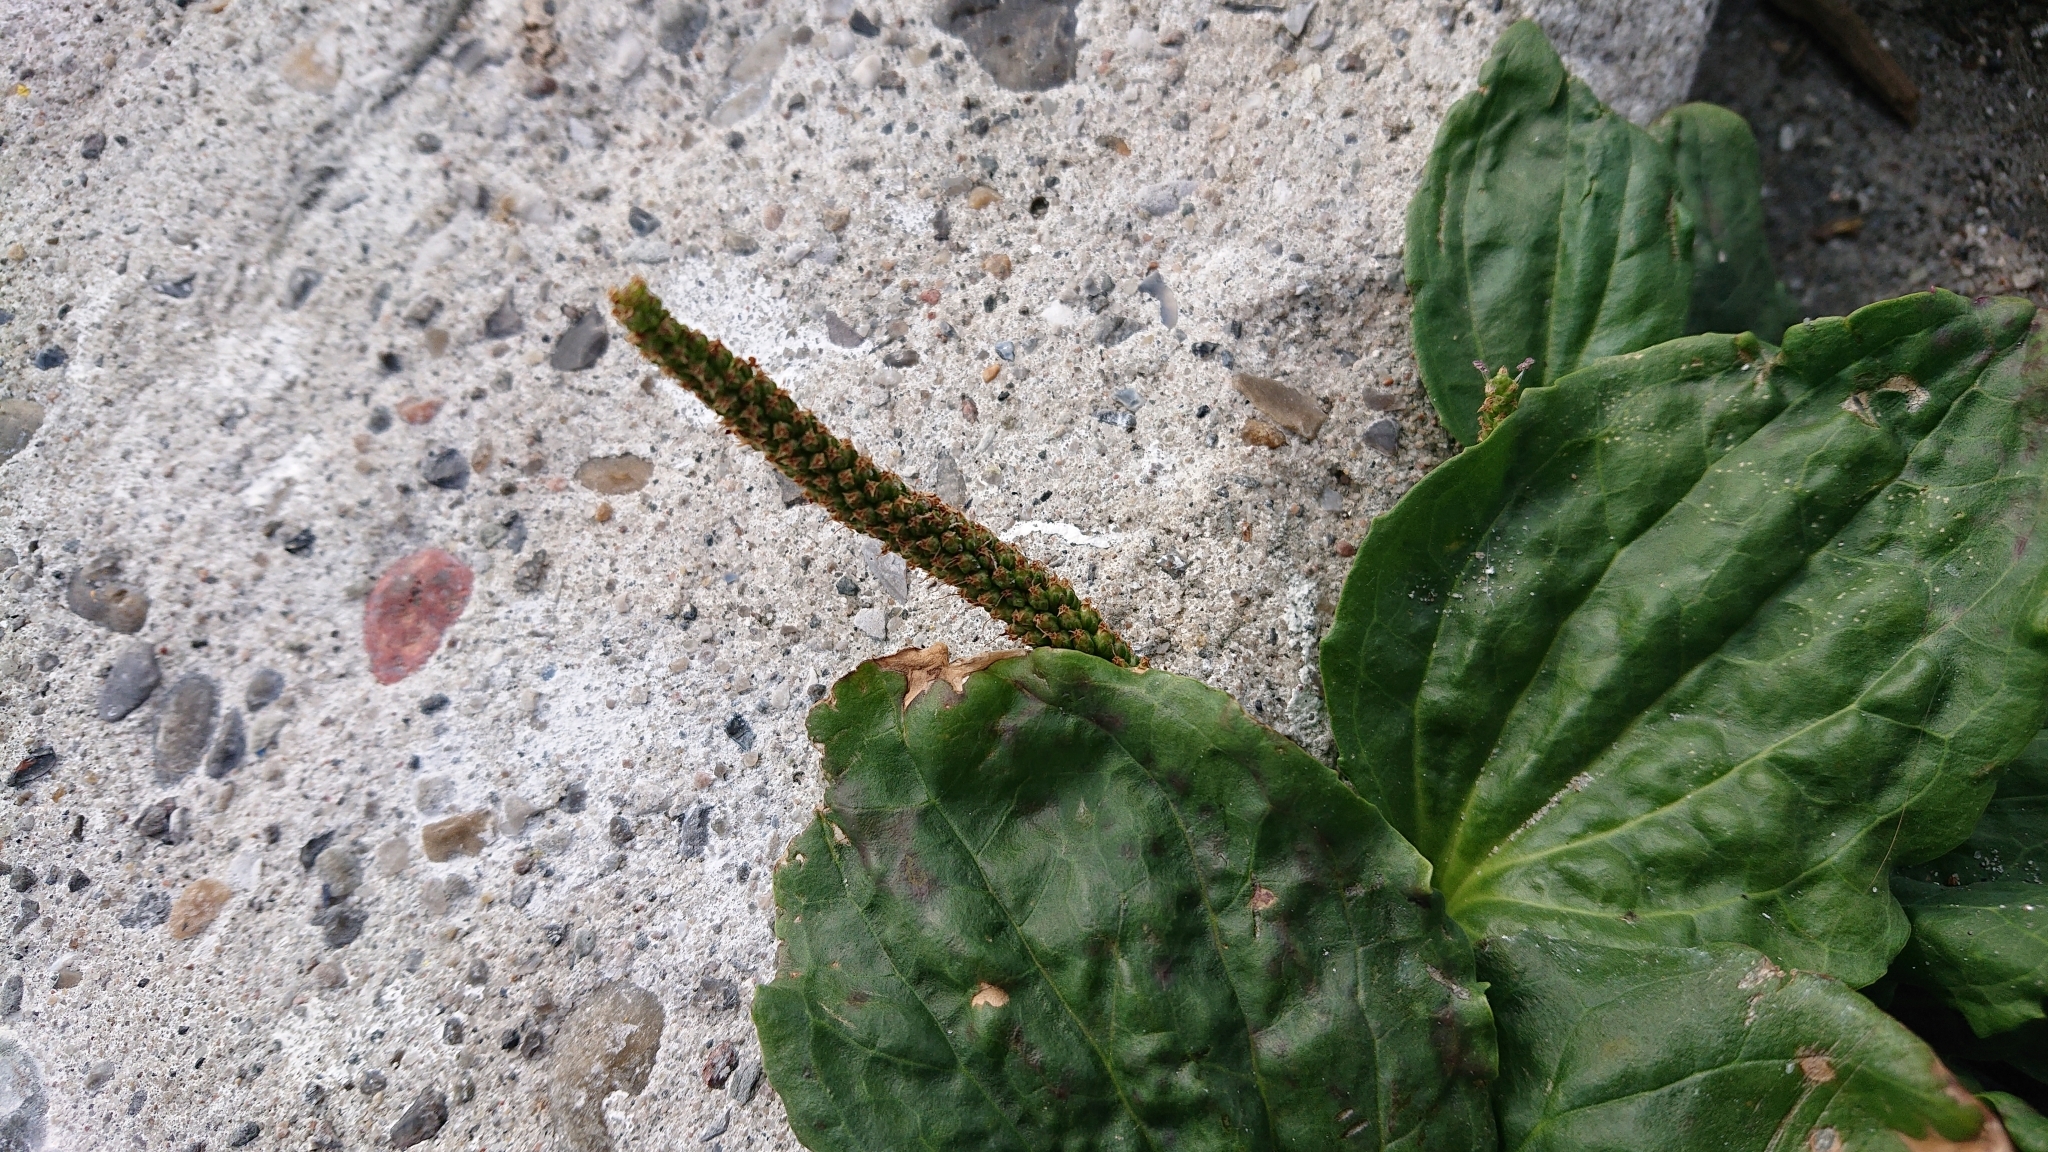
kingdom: Plantae
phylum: Tracheophyta
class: Magnoliopsida
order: Lamiales
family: Plantaginaceae
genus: Plantago
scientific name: Plantago major
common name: Common plantain
